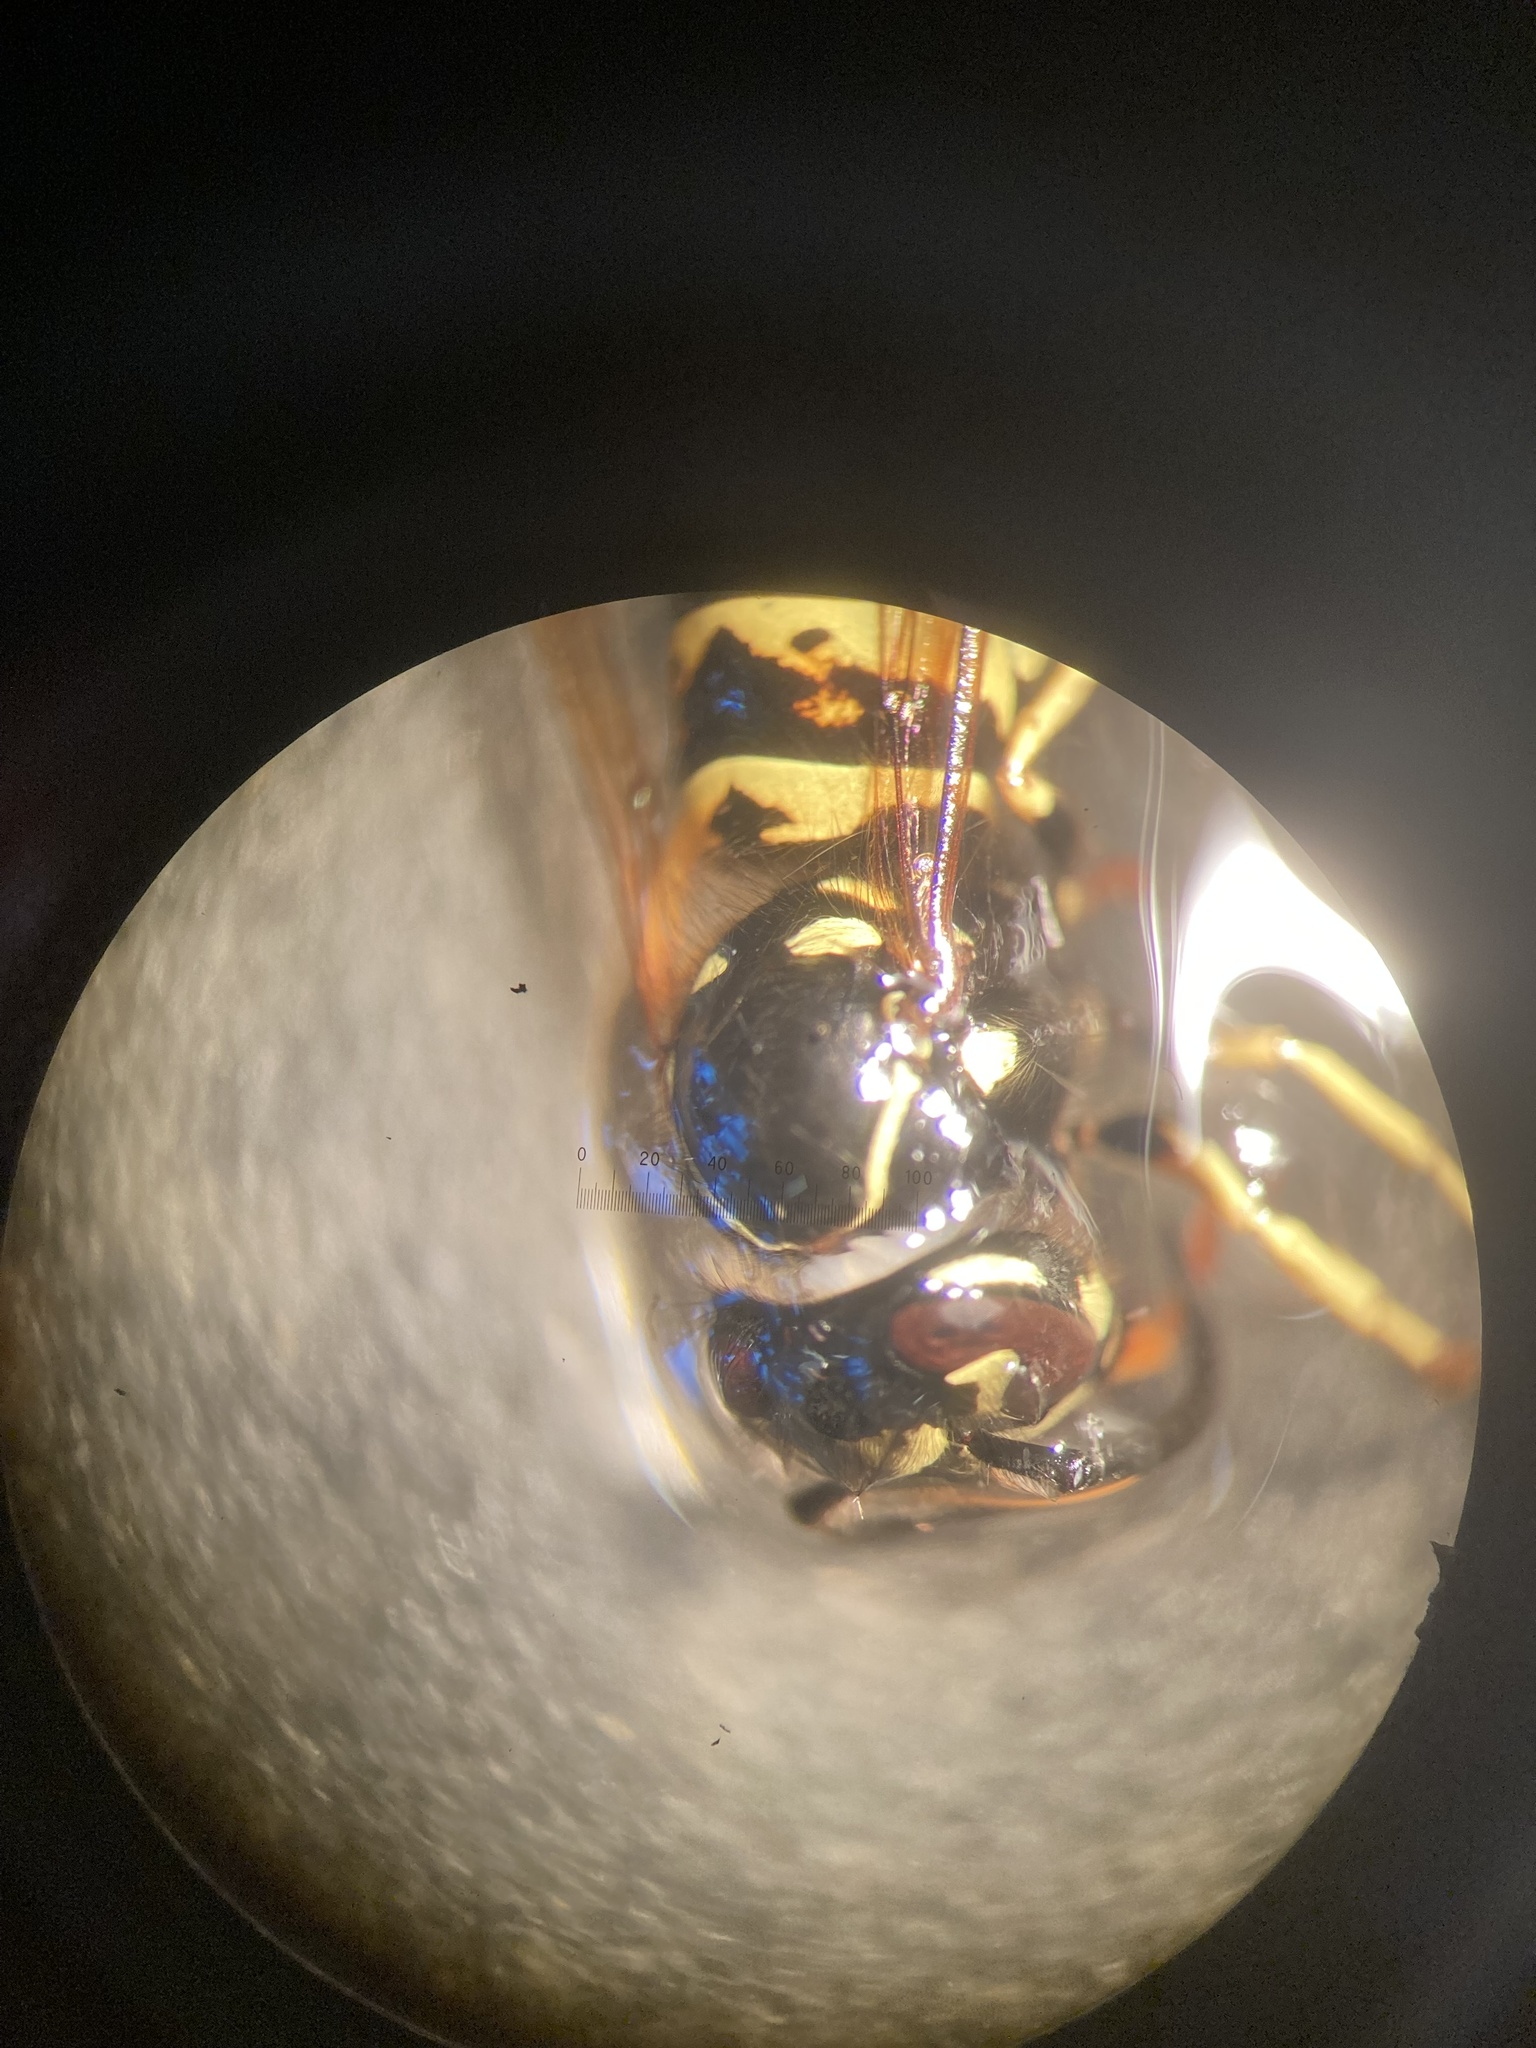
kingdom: Animalia
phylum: Arthropoda
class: Insecta
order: Hymenoptera
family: Vespidae
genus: Vespula
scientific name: Vespula alascensis
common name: Alaska yellowjacket
